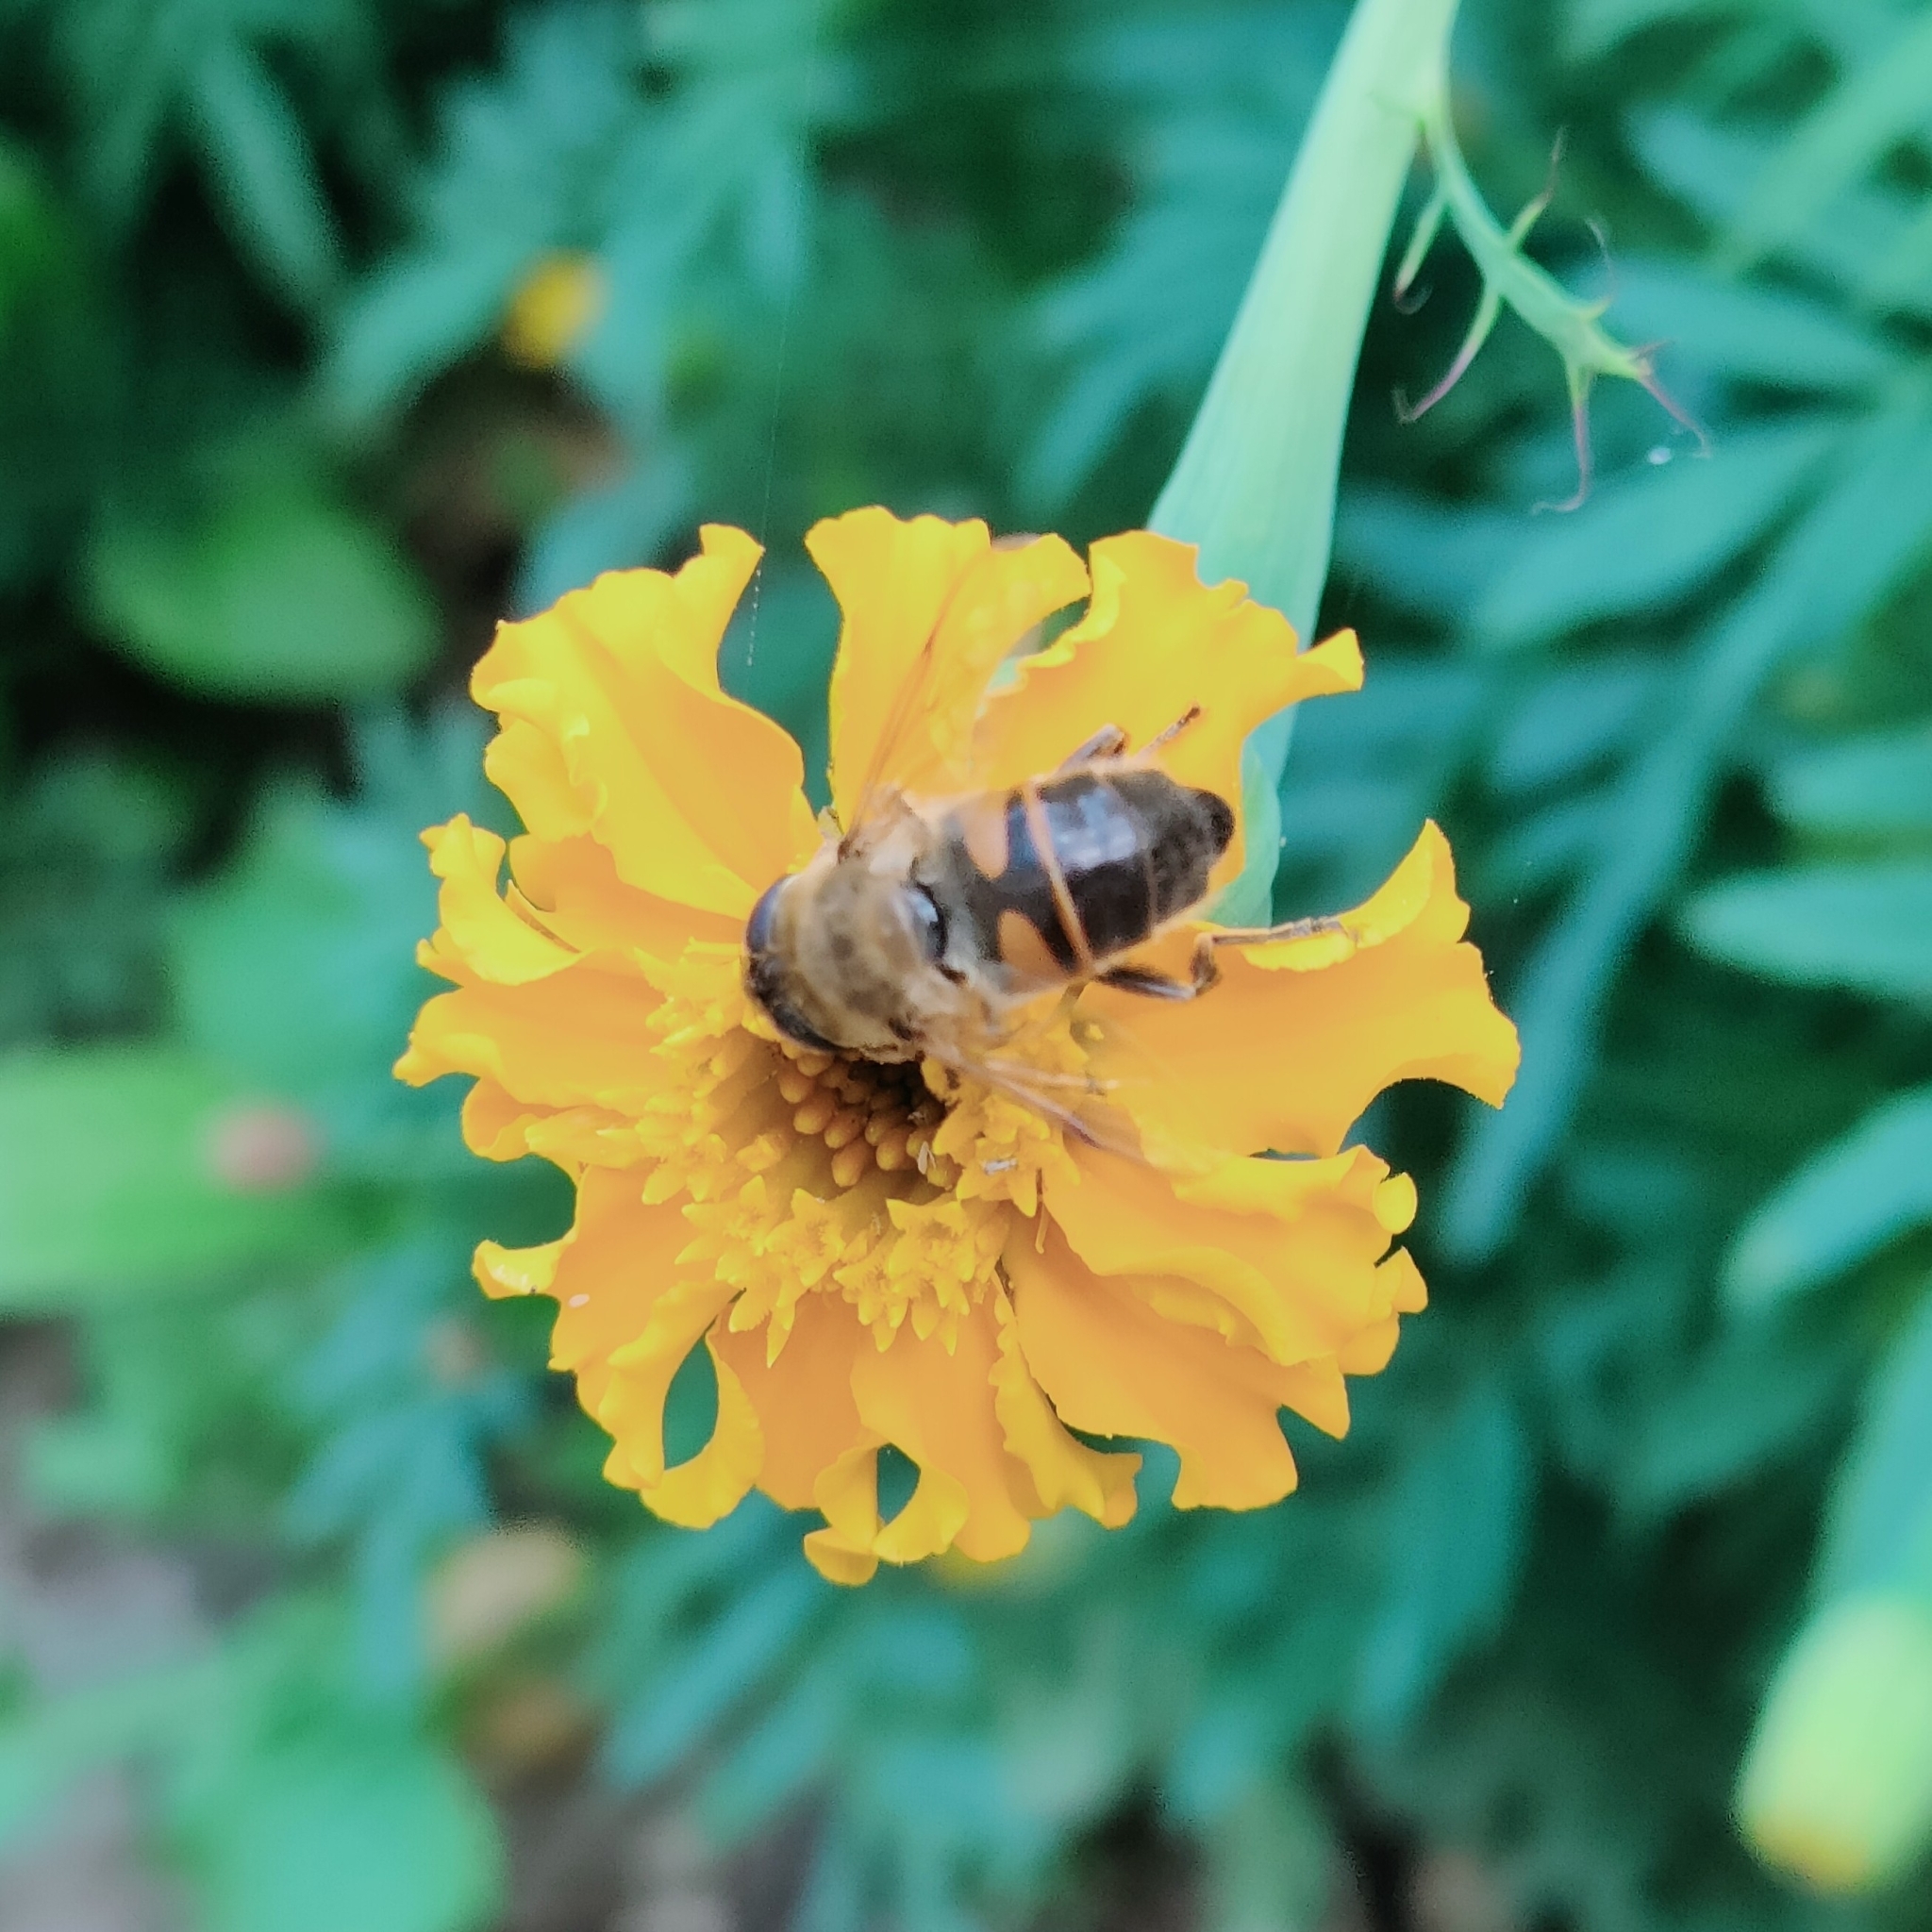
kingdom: Animalia
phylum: Arthropoda
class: Insecta
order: Diptera
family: Syrphidae
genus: Eristalis
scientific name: Eristalis tenax
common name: Drone fly
